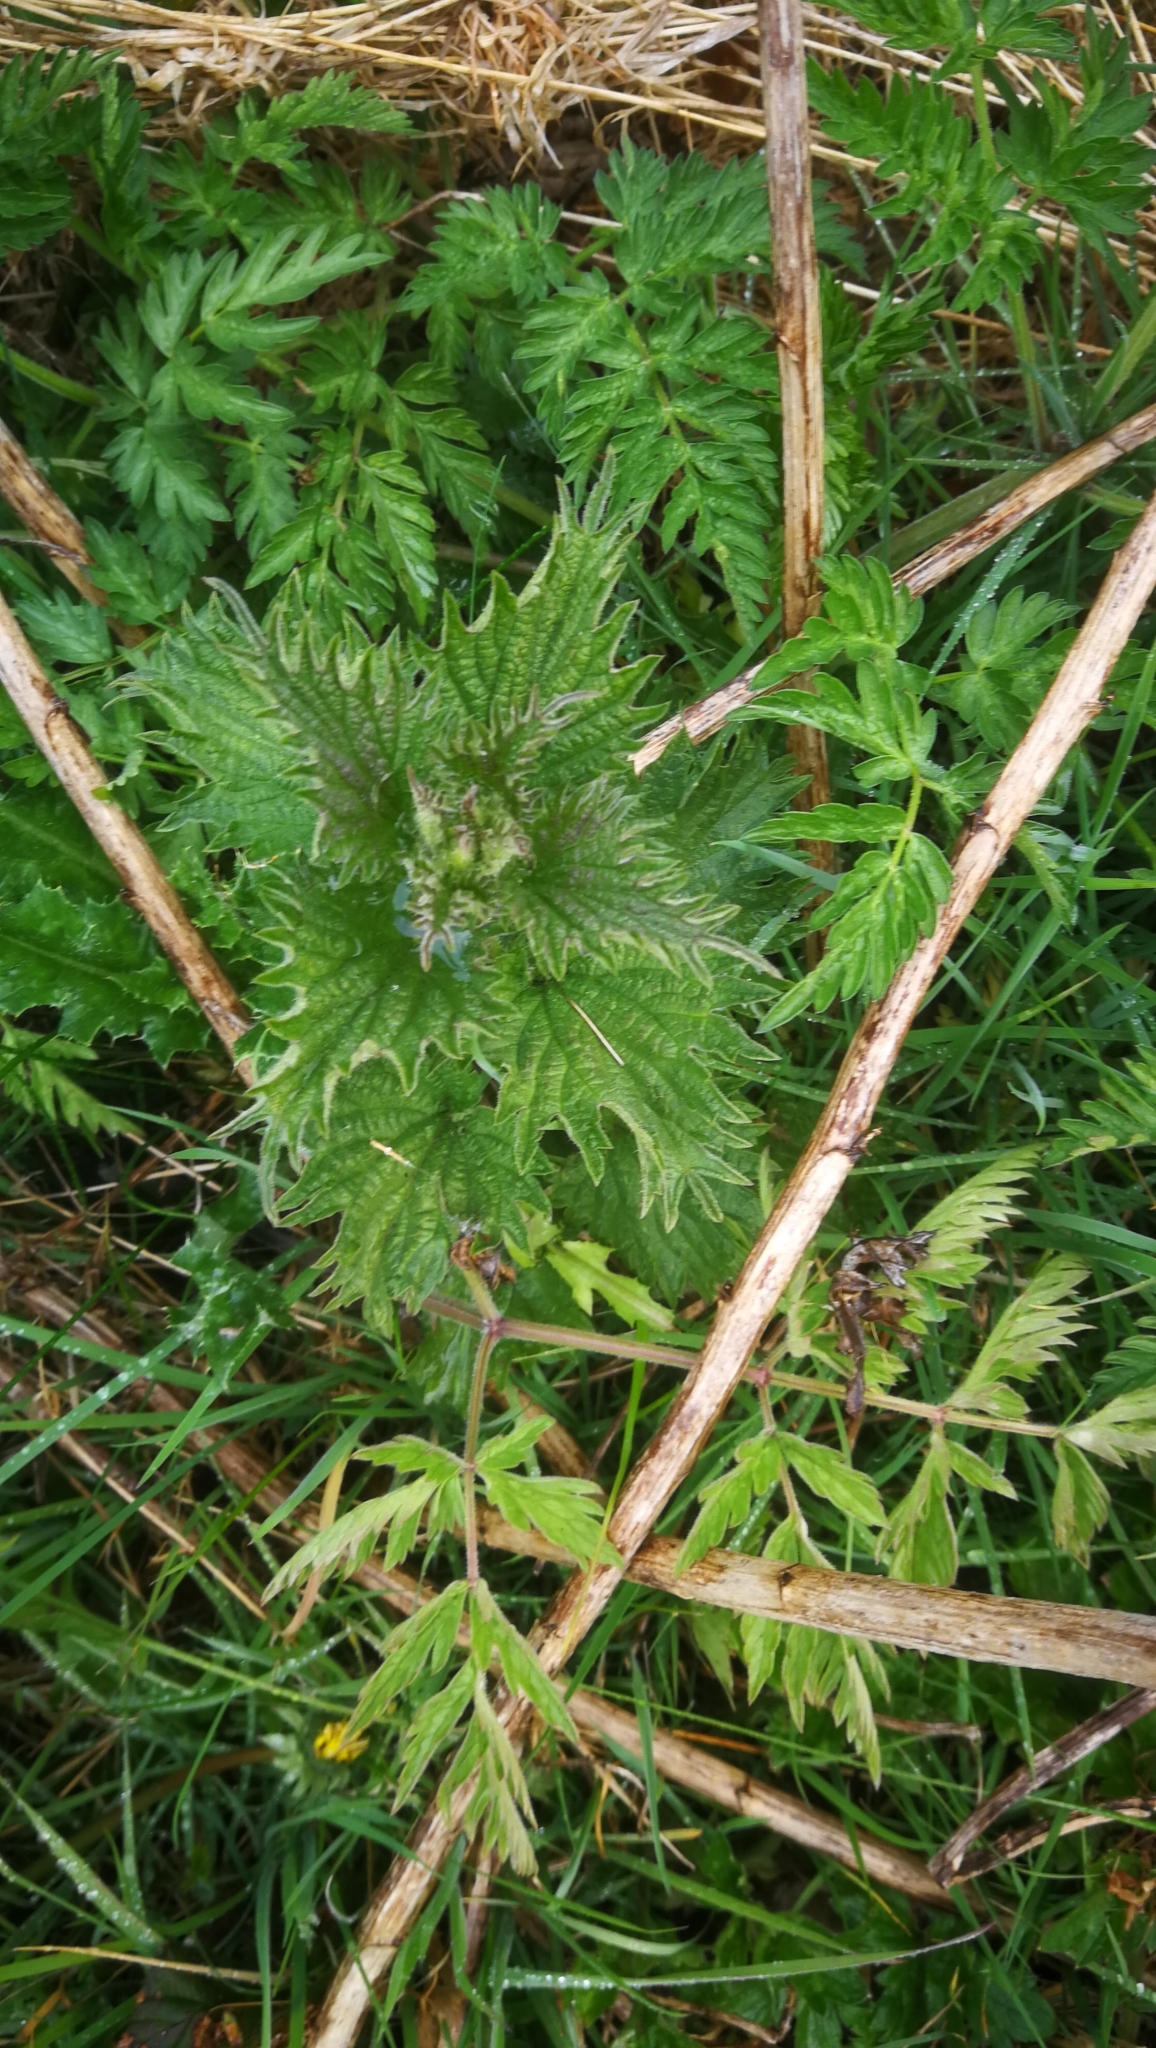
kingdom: Plantae
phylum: Tracheophyta
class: Magnoliopsida
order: Rosales
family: Urticaceae
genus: Urtica
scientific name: Urtica dioica
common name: Common nettle
